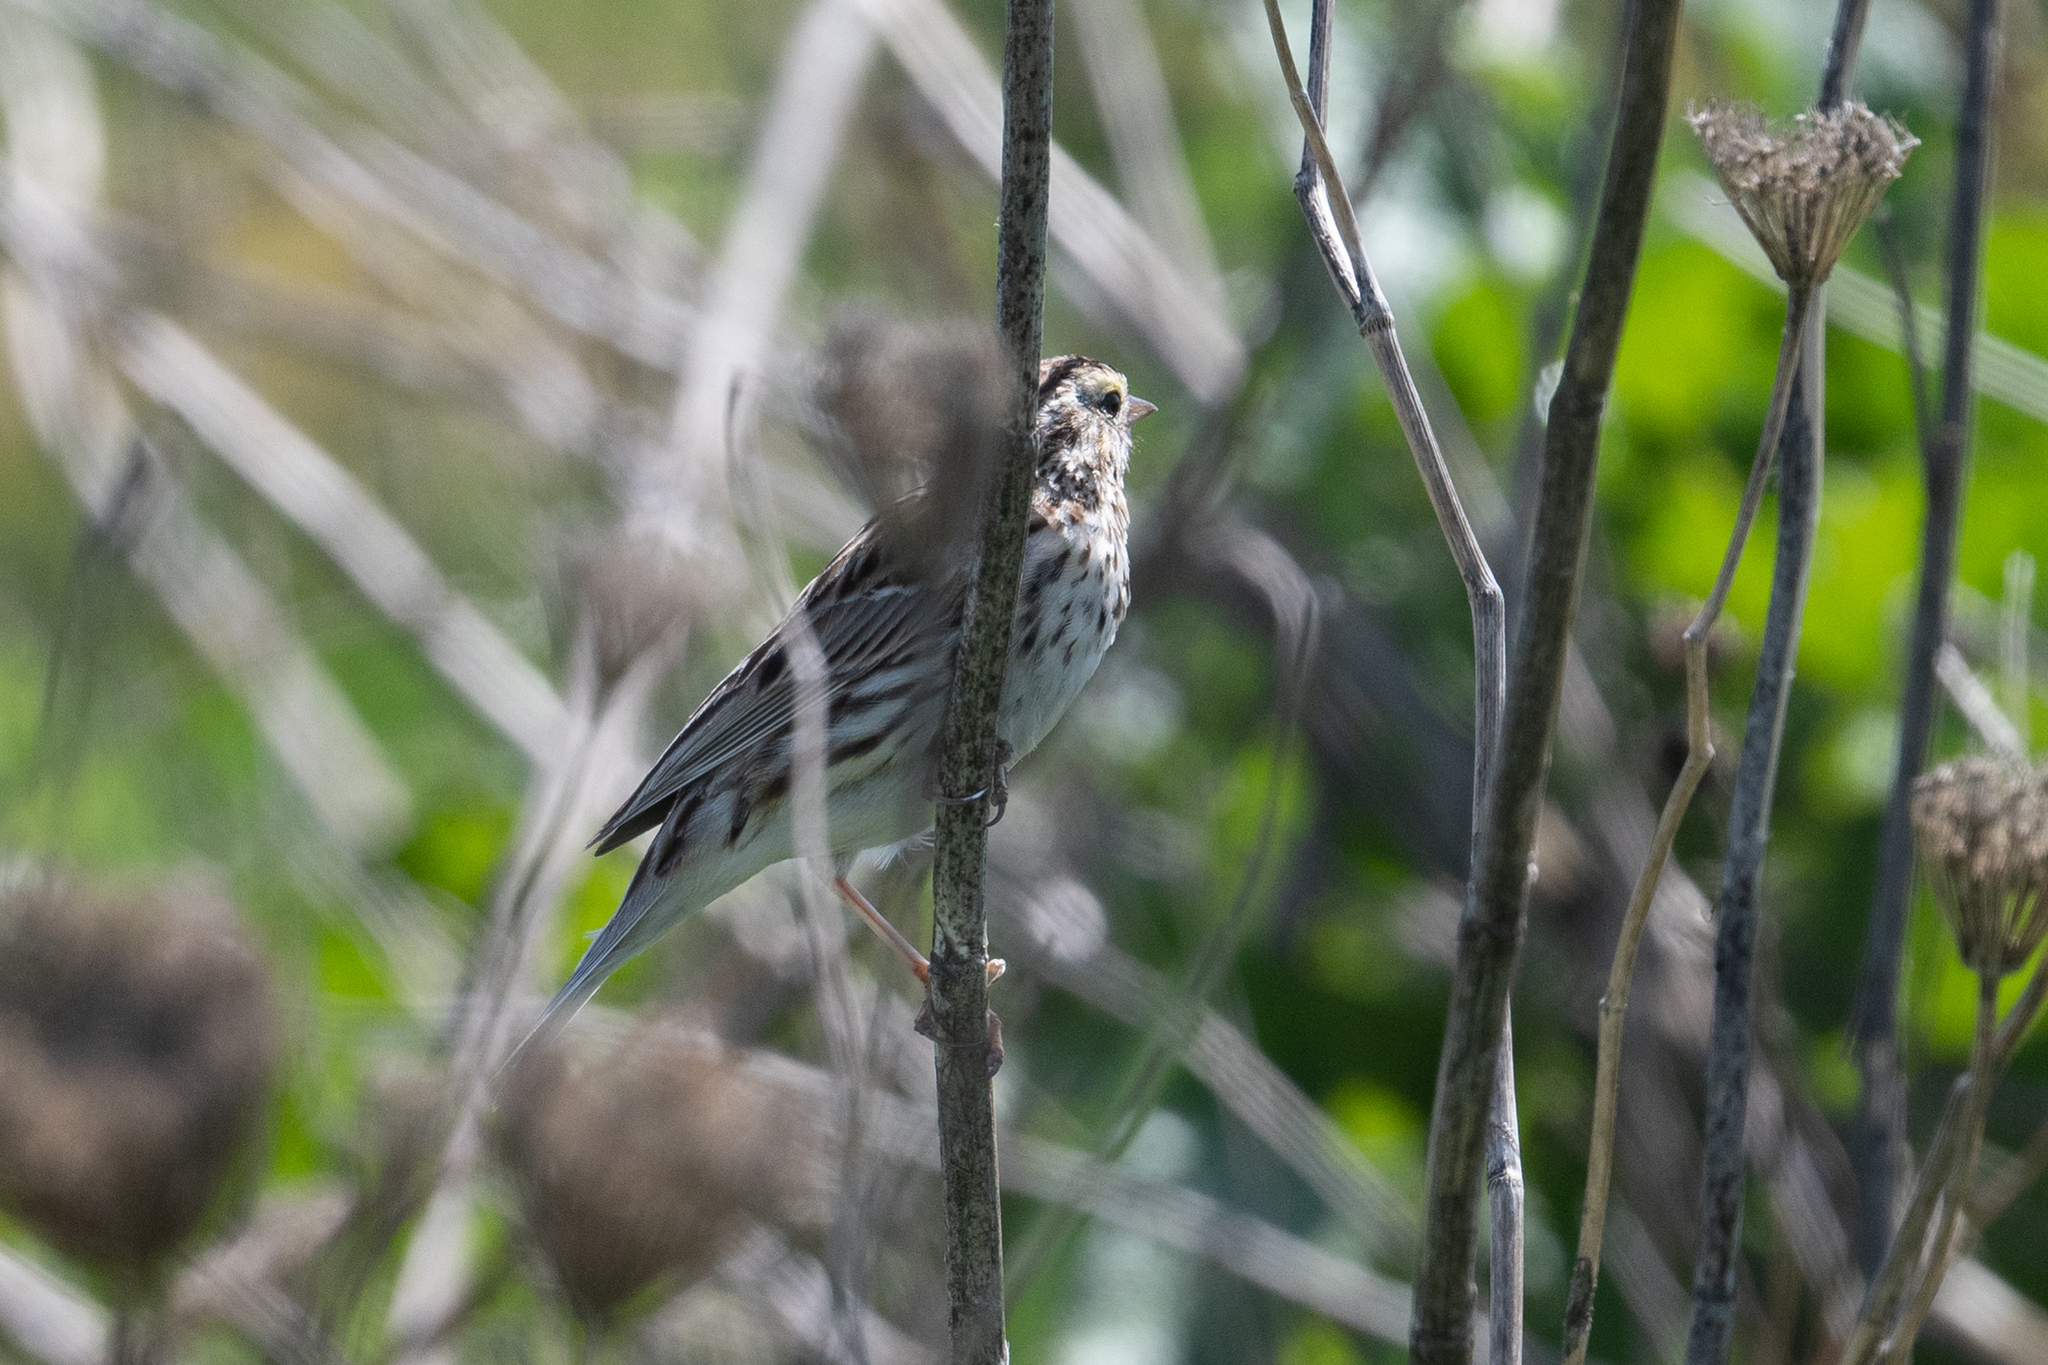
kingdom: Animalia
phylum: Chordata
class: Aves
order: Passeriformes
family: Passerellidae
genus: Passerculus
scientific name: Passerculus sandwichensis
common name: Savannah sparrow
